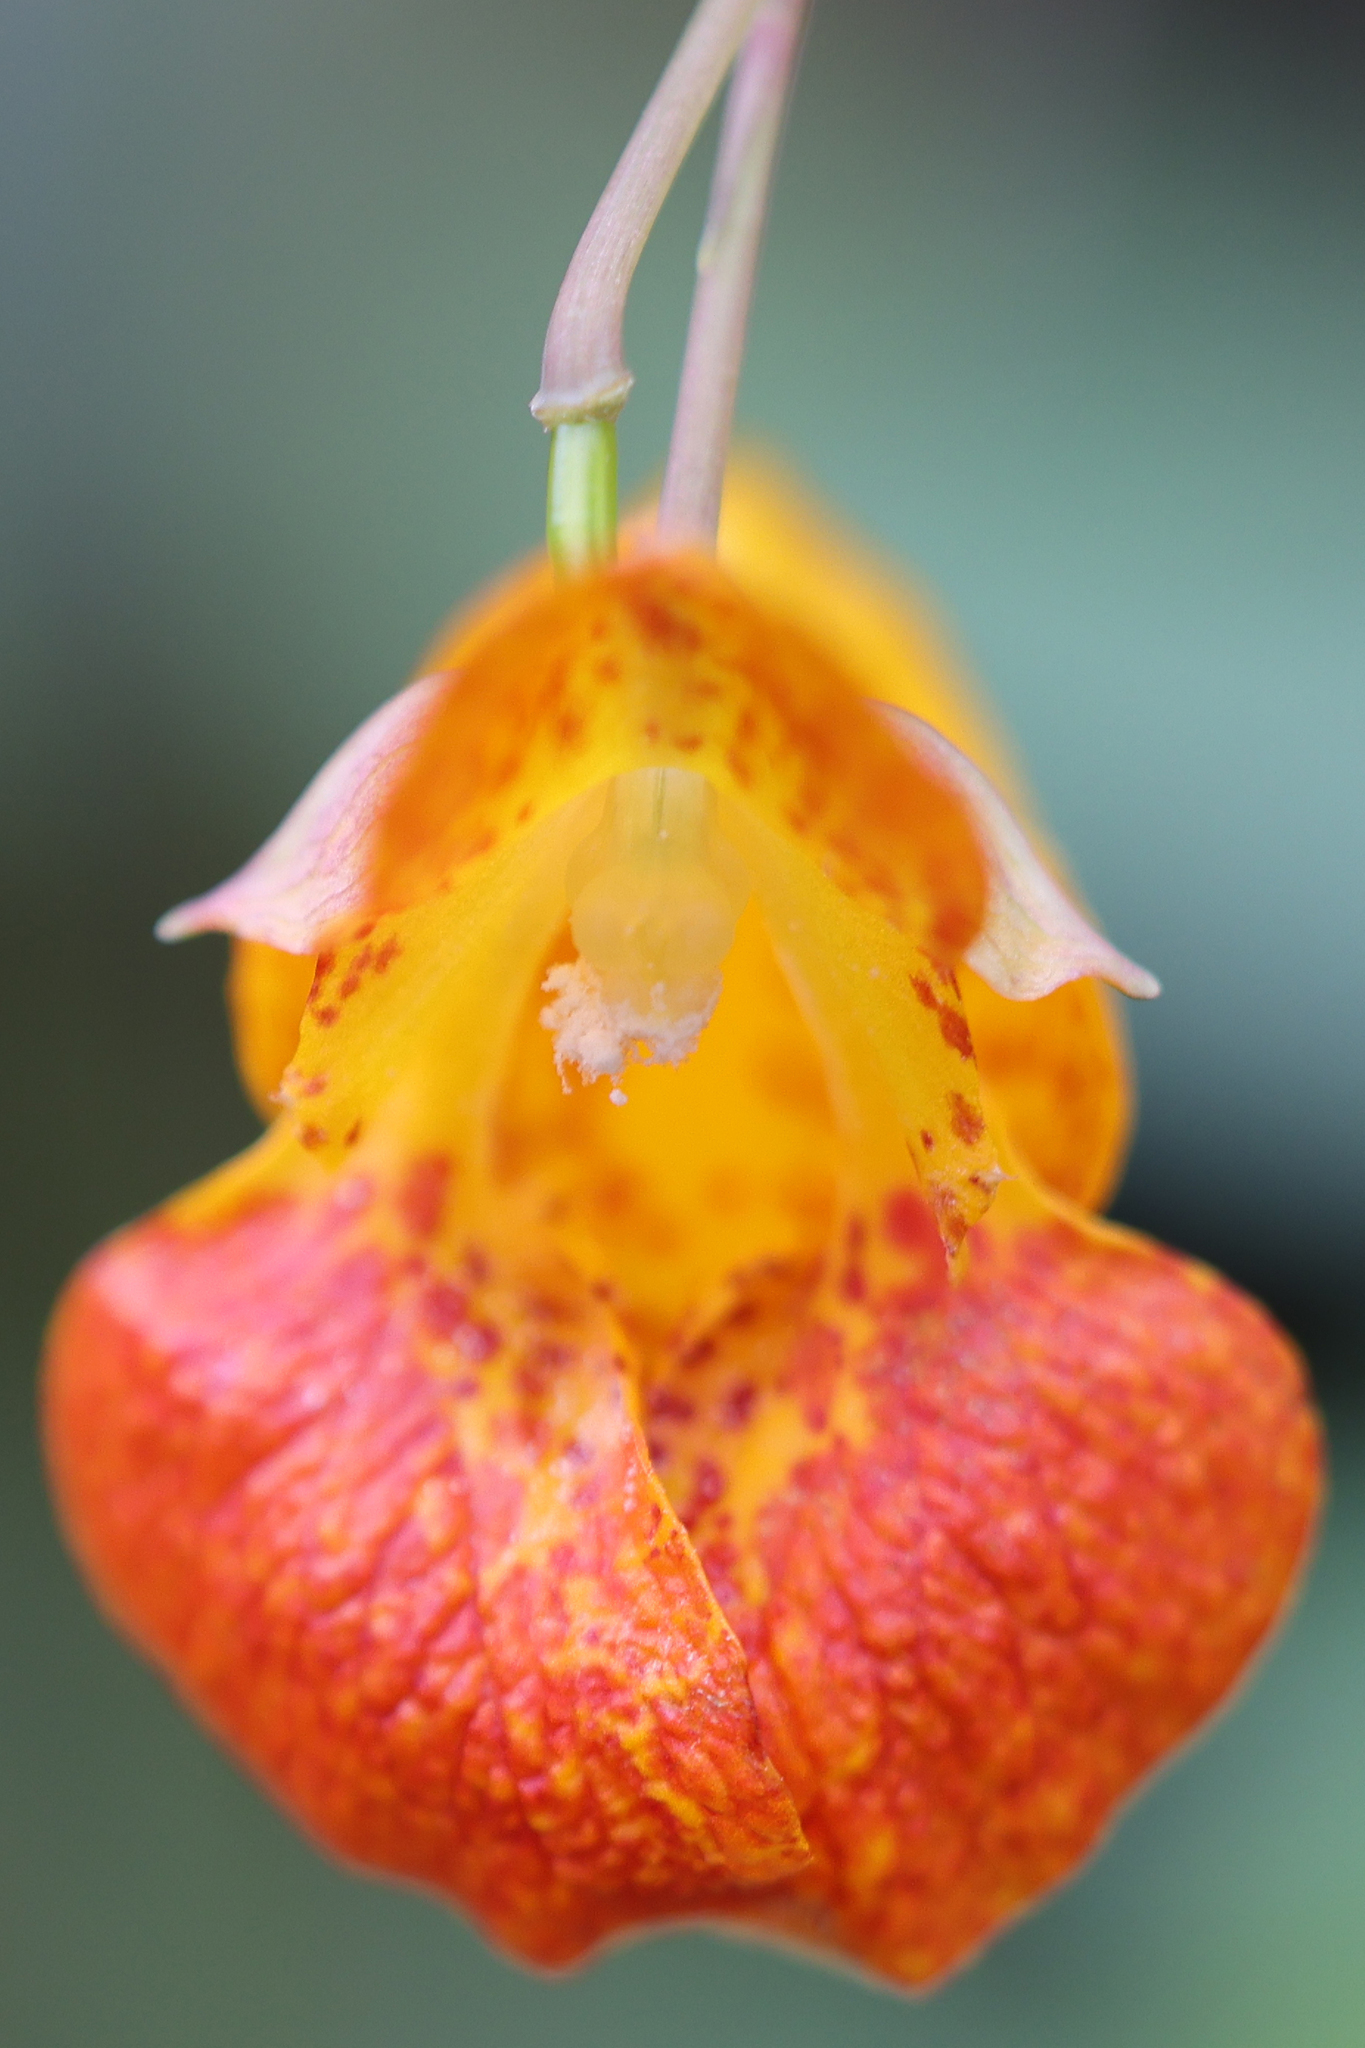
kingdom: Plantae
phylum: Tracheophyta
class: Magnoliopsida
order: Ericales
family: Balsaminaceae
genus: Impatiens
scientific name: Impatiens capensis
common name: Orange balsam
